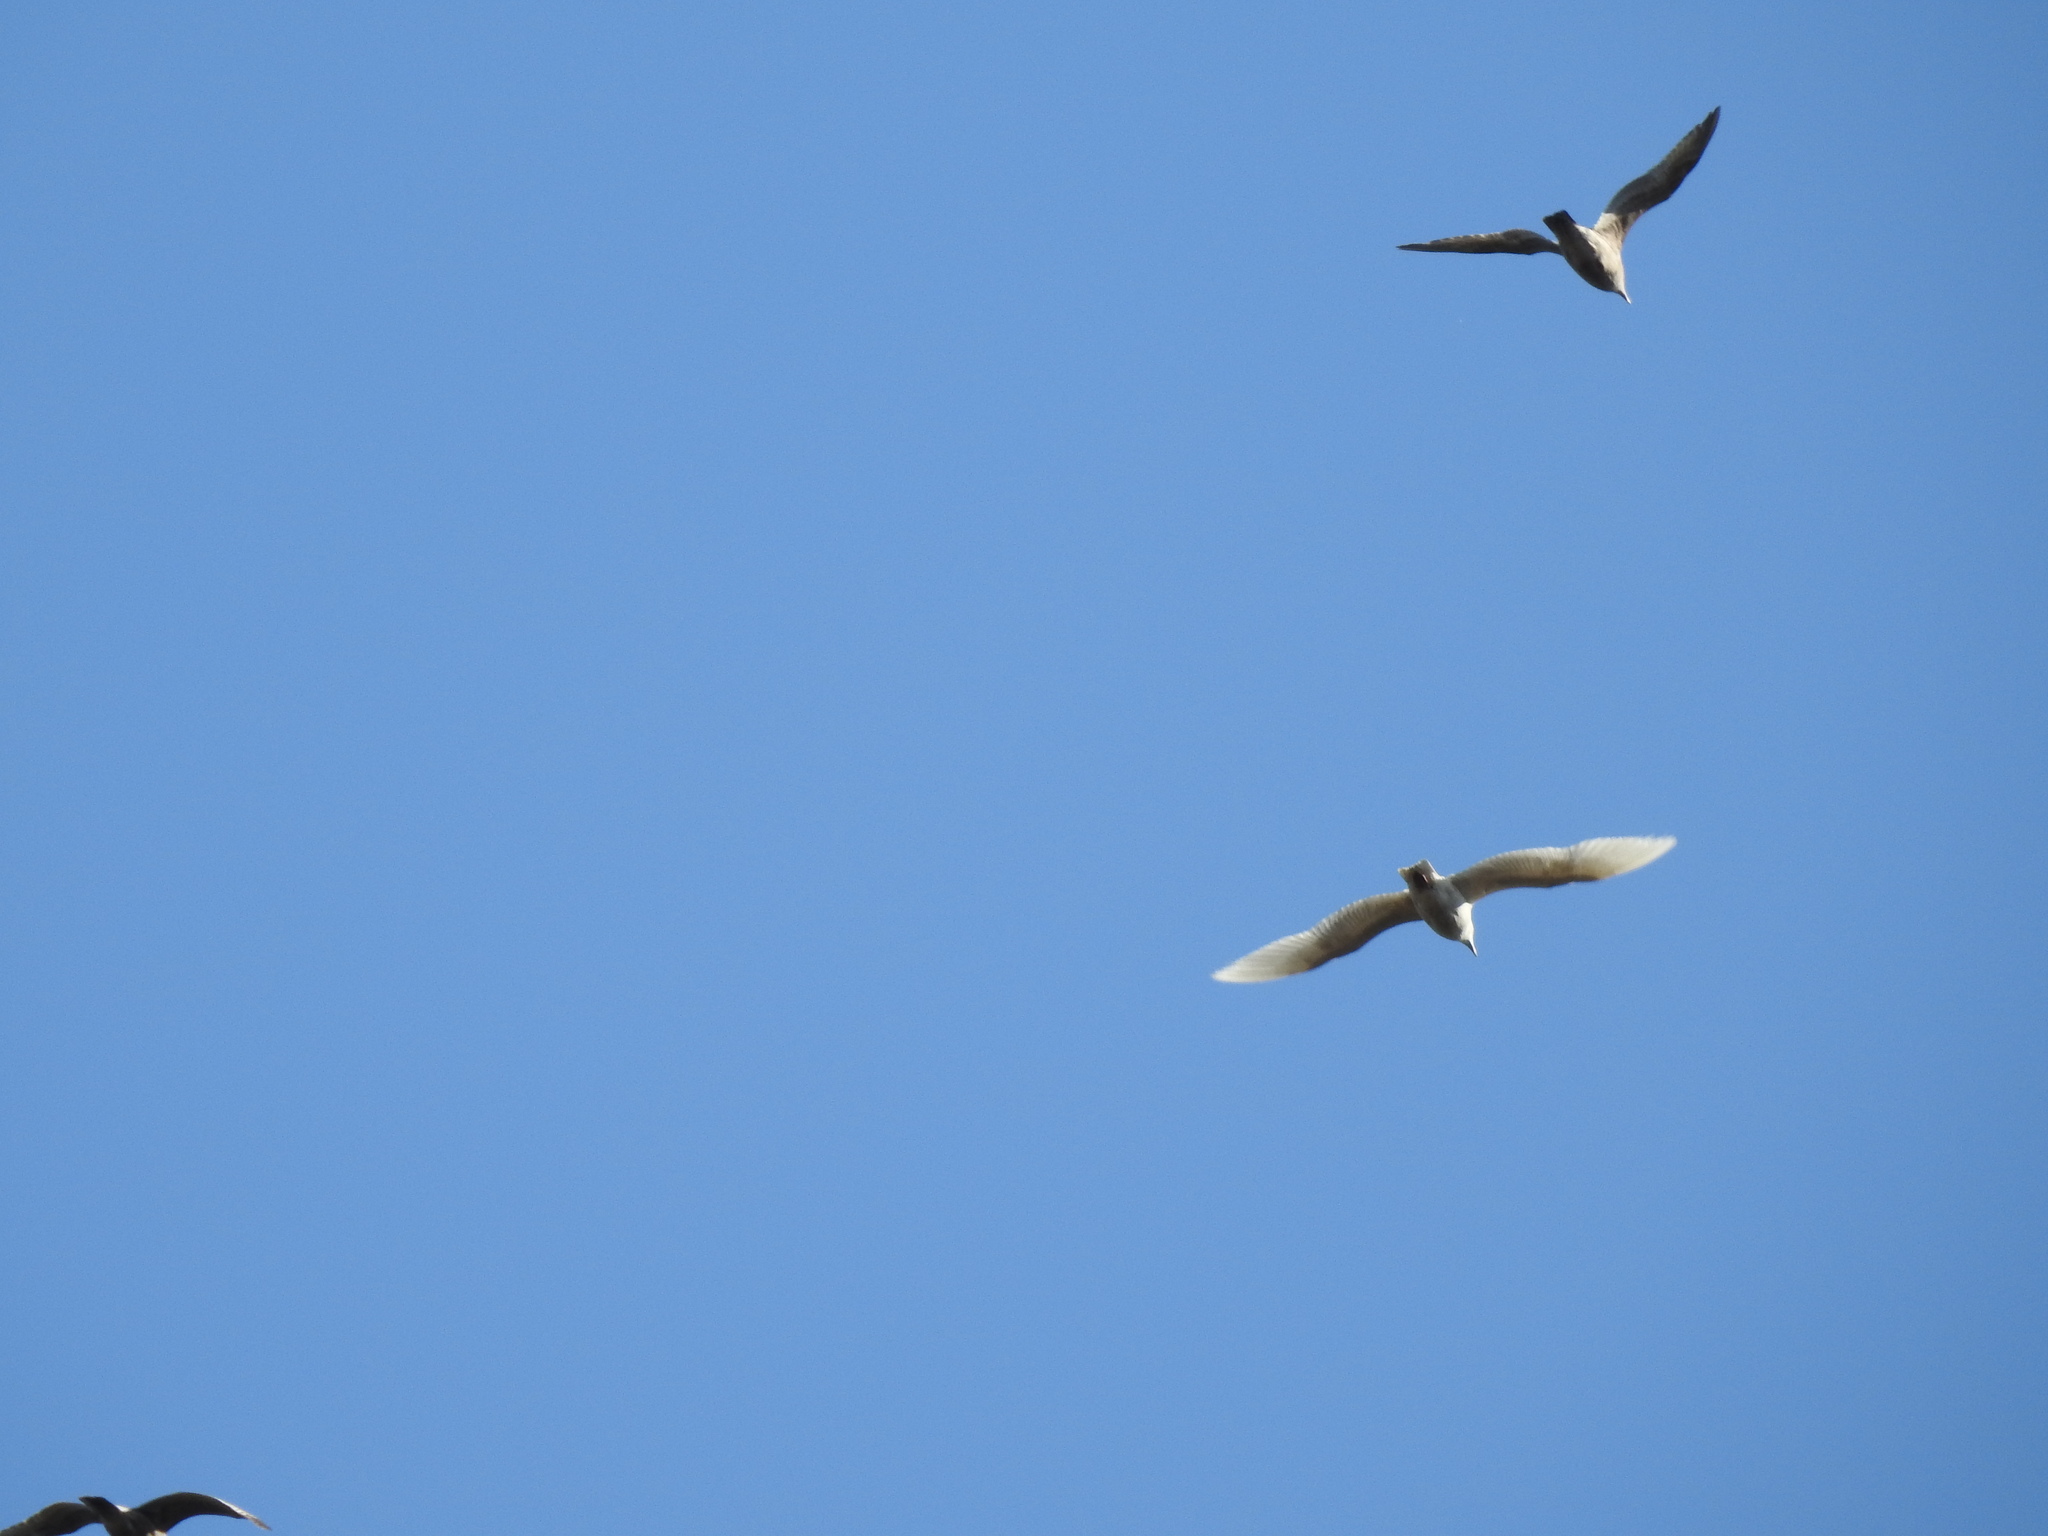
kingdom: Animalia
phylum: Chordata
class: Aves
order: Charadriiformes
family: Laridae
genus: Larus
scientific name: Larus hyperboreus
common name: Glaucous gull
